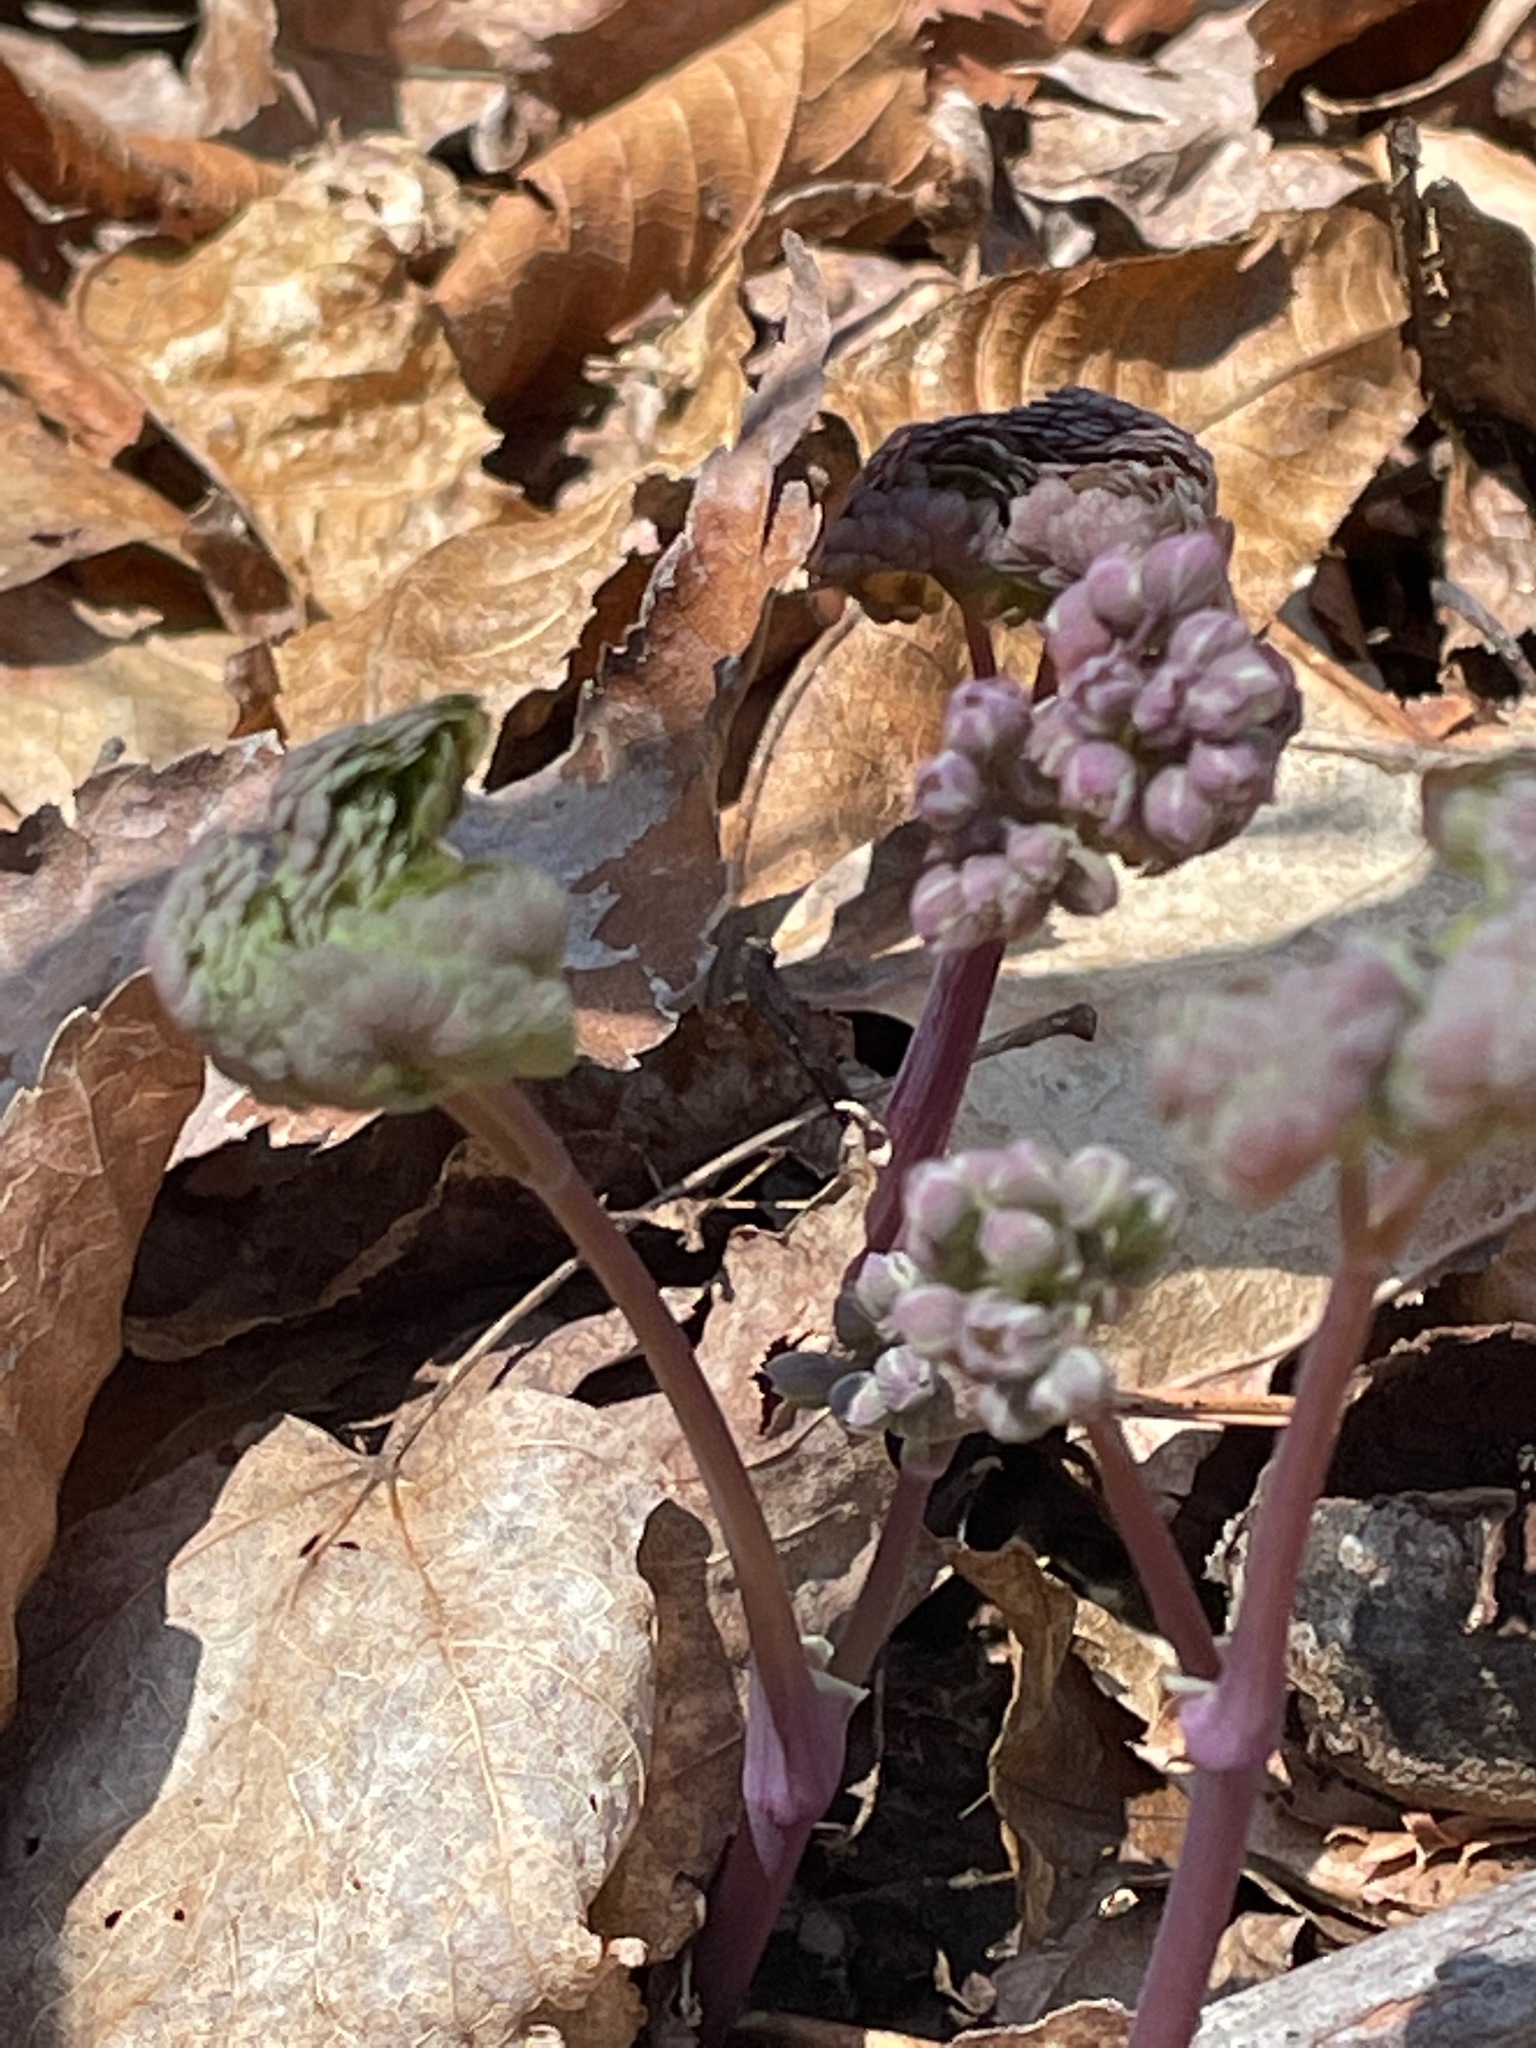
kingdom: Plantae
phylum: Tracheophyta
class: Magnoliopsida
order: Ranunculales
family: Ranunculaceae
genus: Thalictrum
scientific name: Thalictrum dioicum
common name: Early meadow-rue
